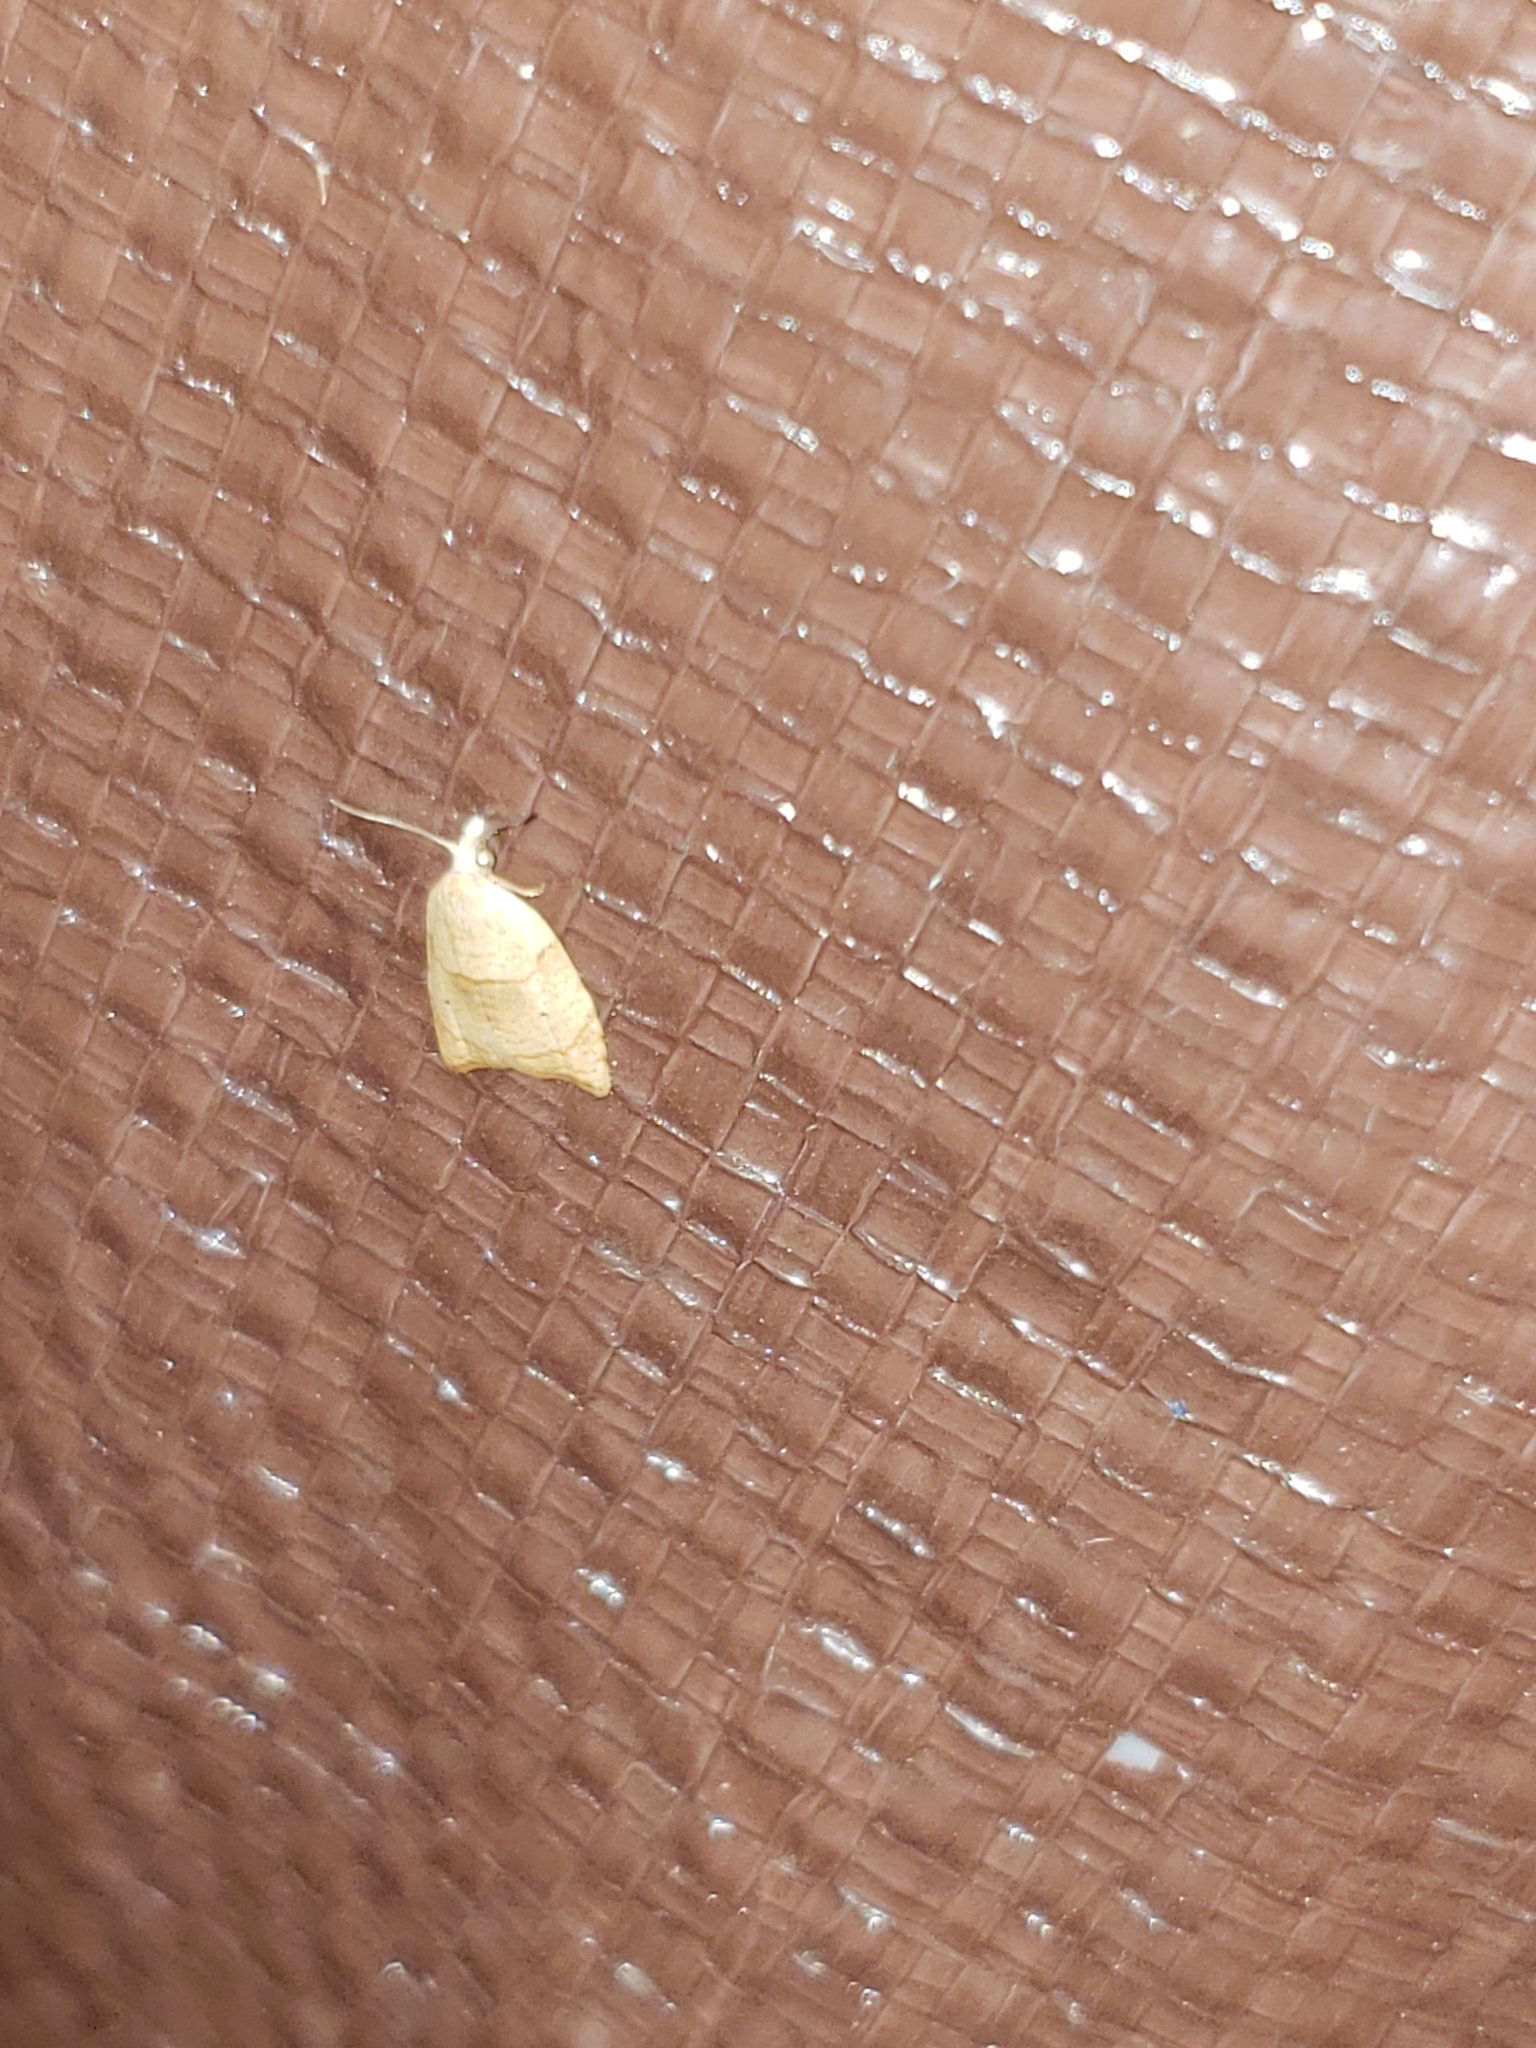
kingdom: Animalia
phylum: Arthropoda
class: Insecta
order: Lepidoptera
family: Tortricidae
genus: Coelostathma
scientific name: Coelostathma discopunctana
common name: Batman moth
